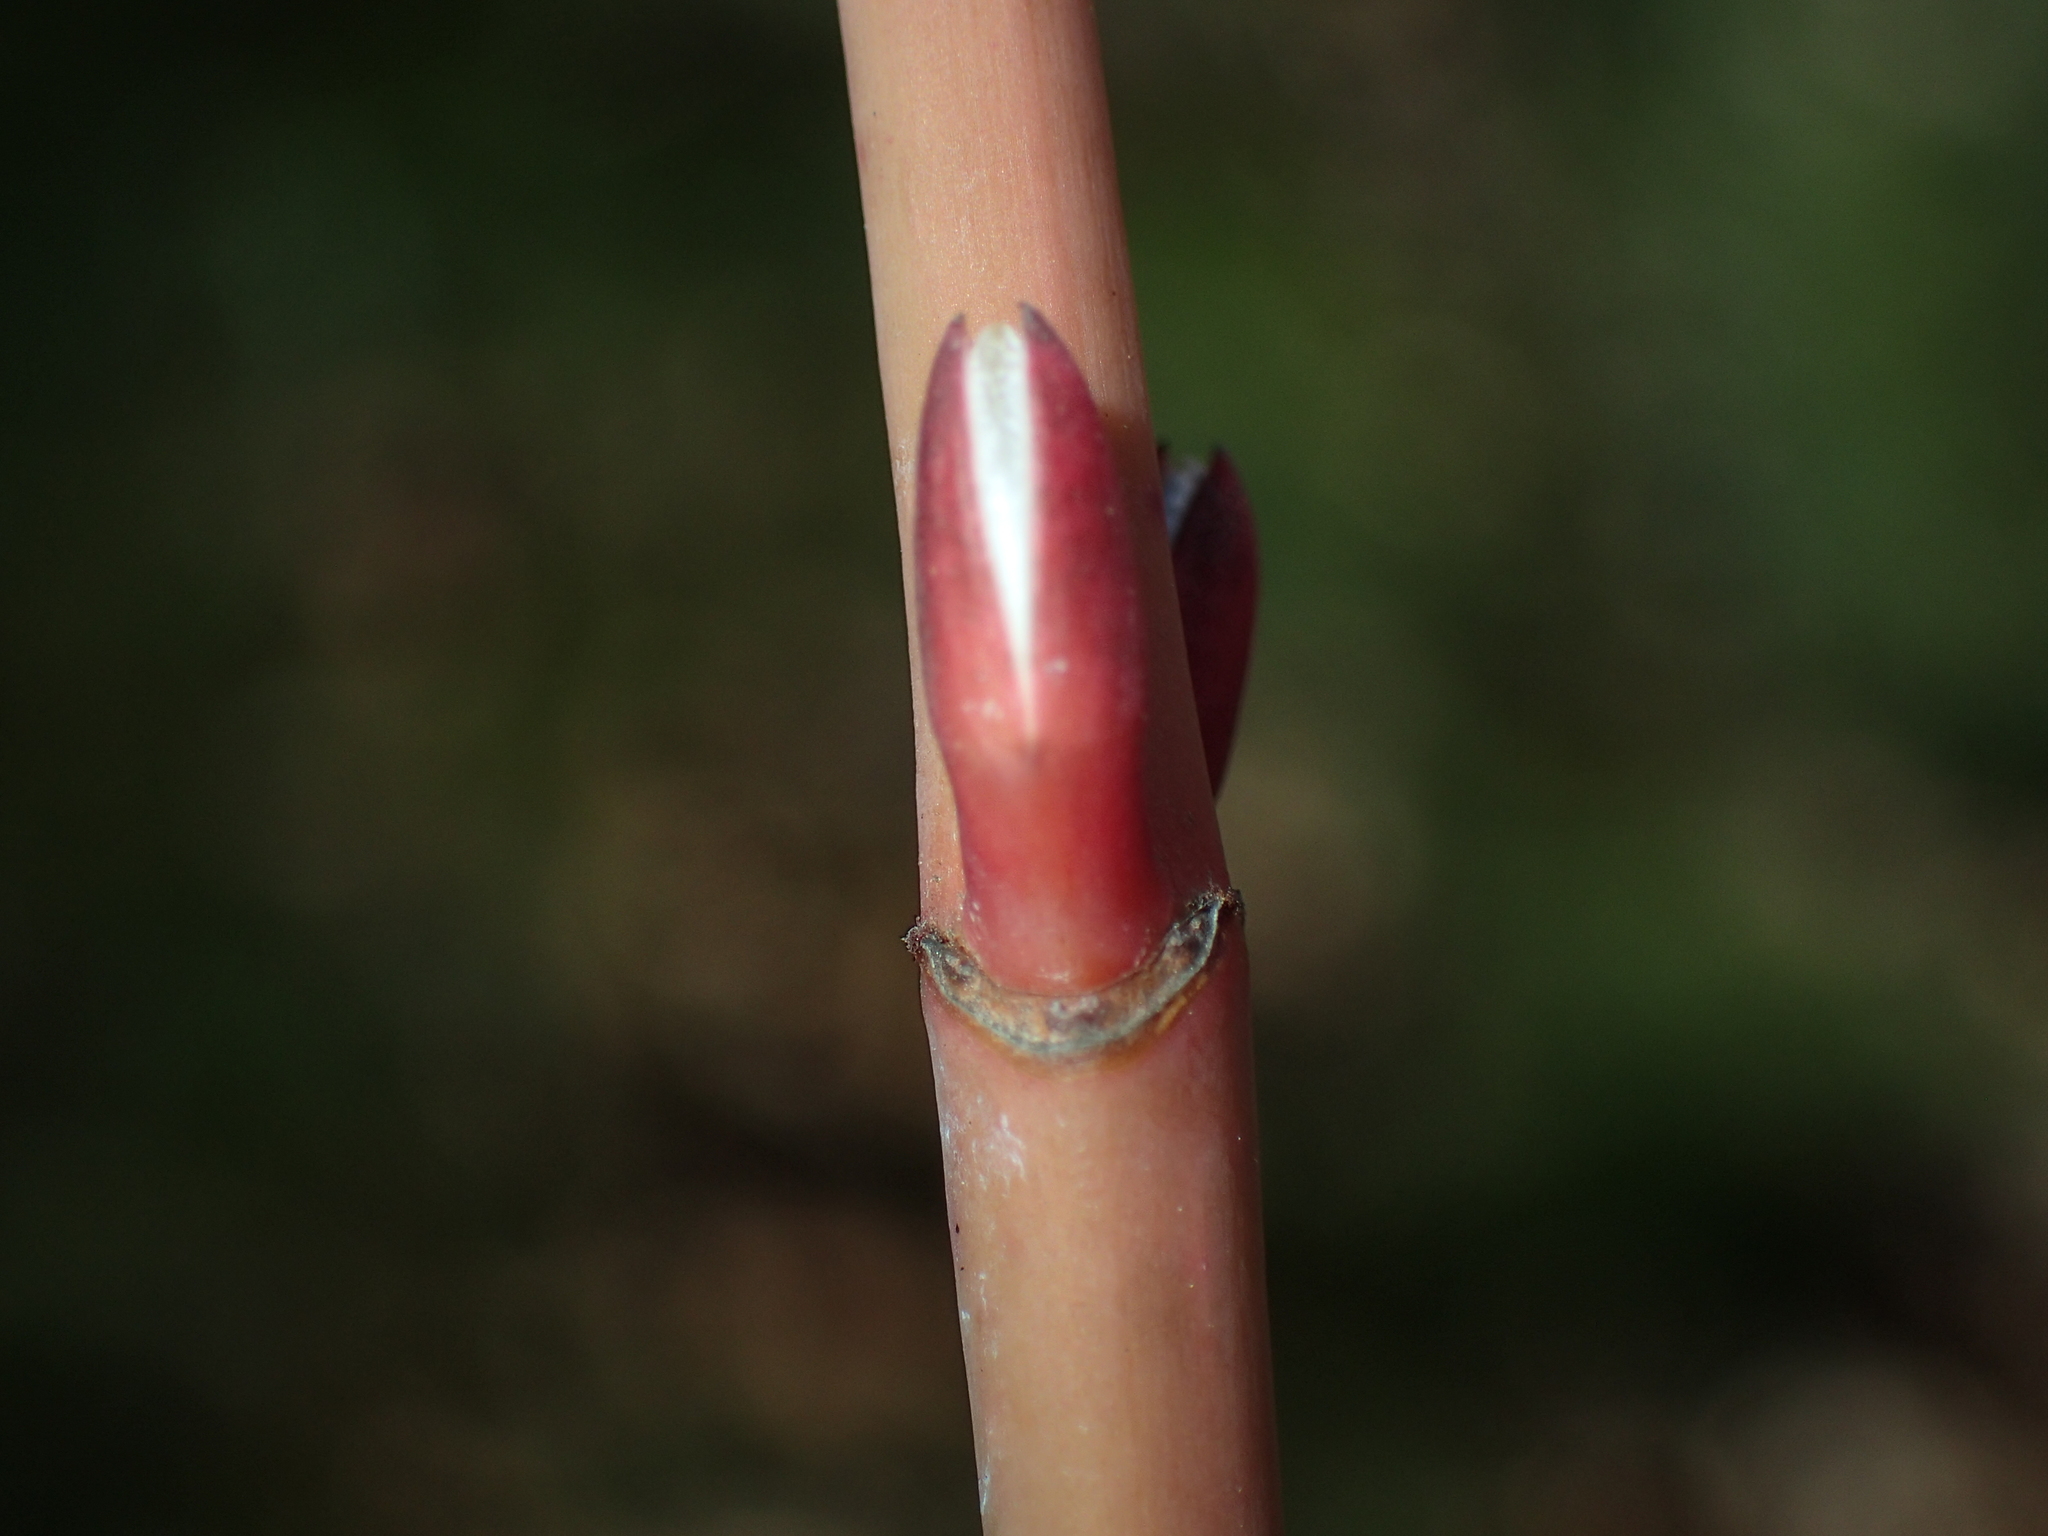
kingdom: Plantae
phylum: Tracheophyta
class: Magnoliopsida
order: Sapindales
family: Sapindaceae
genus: Acer
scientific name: Acer pensylvanicum
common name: Moosewood
